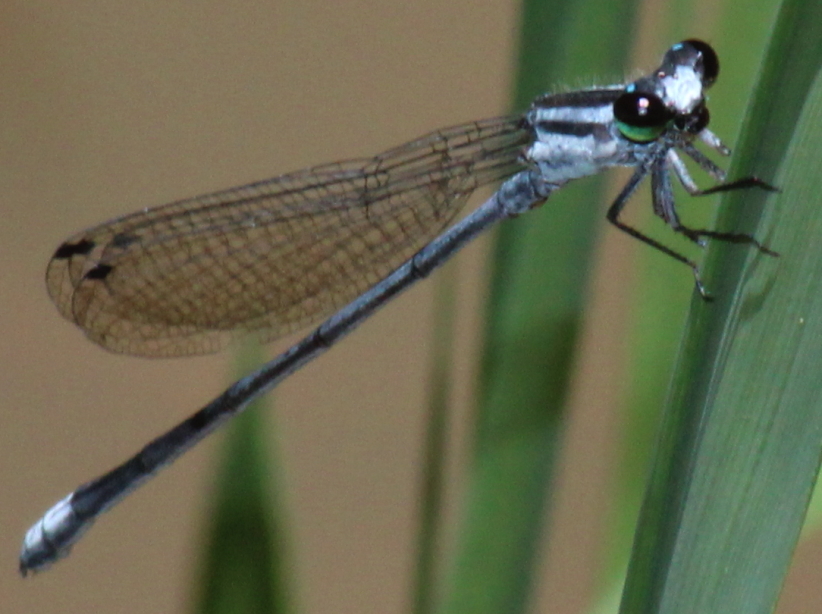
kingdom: Animalia
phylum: Arthropoda
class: Insecta
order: Odonata
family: Coenagrionidae
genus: Pseudagrion
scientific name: Pseudagrion kersteni
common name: Powder-faced sprite
